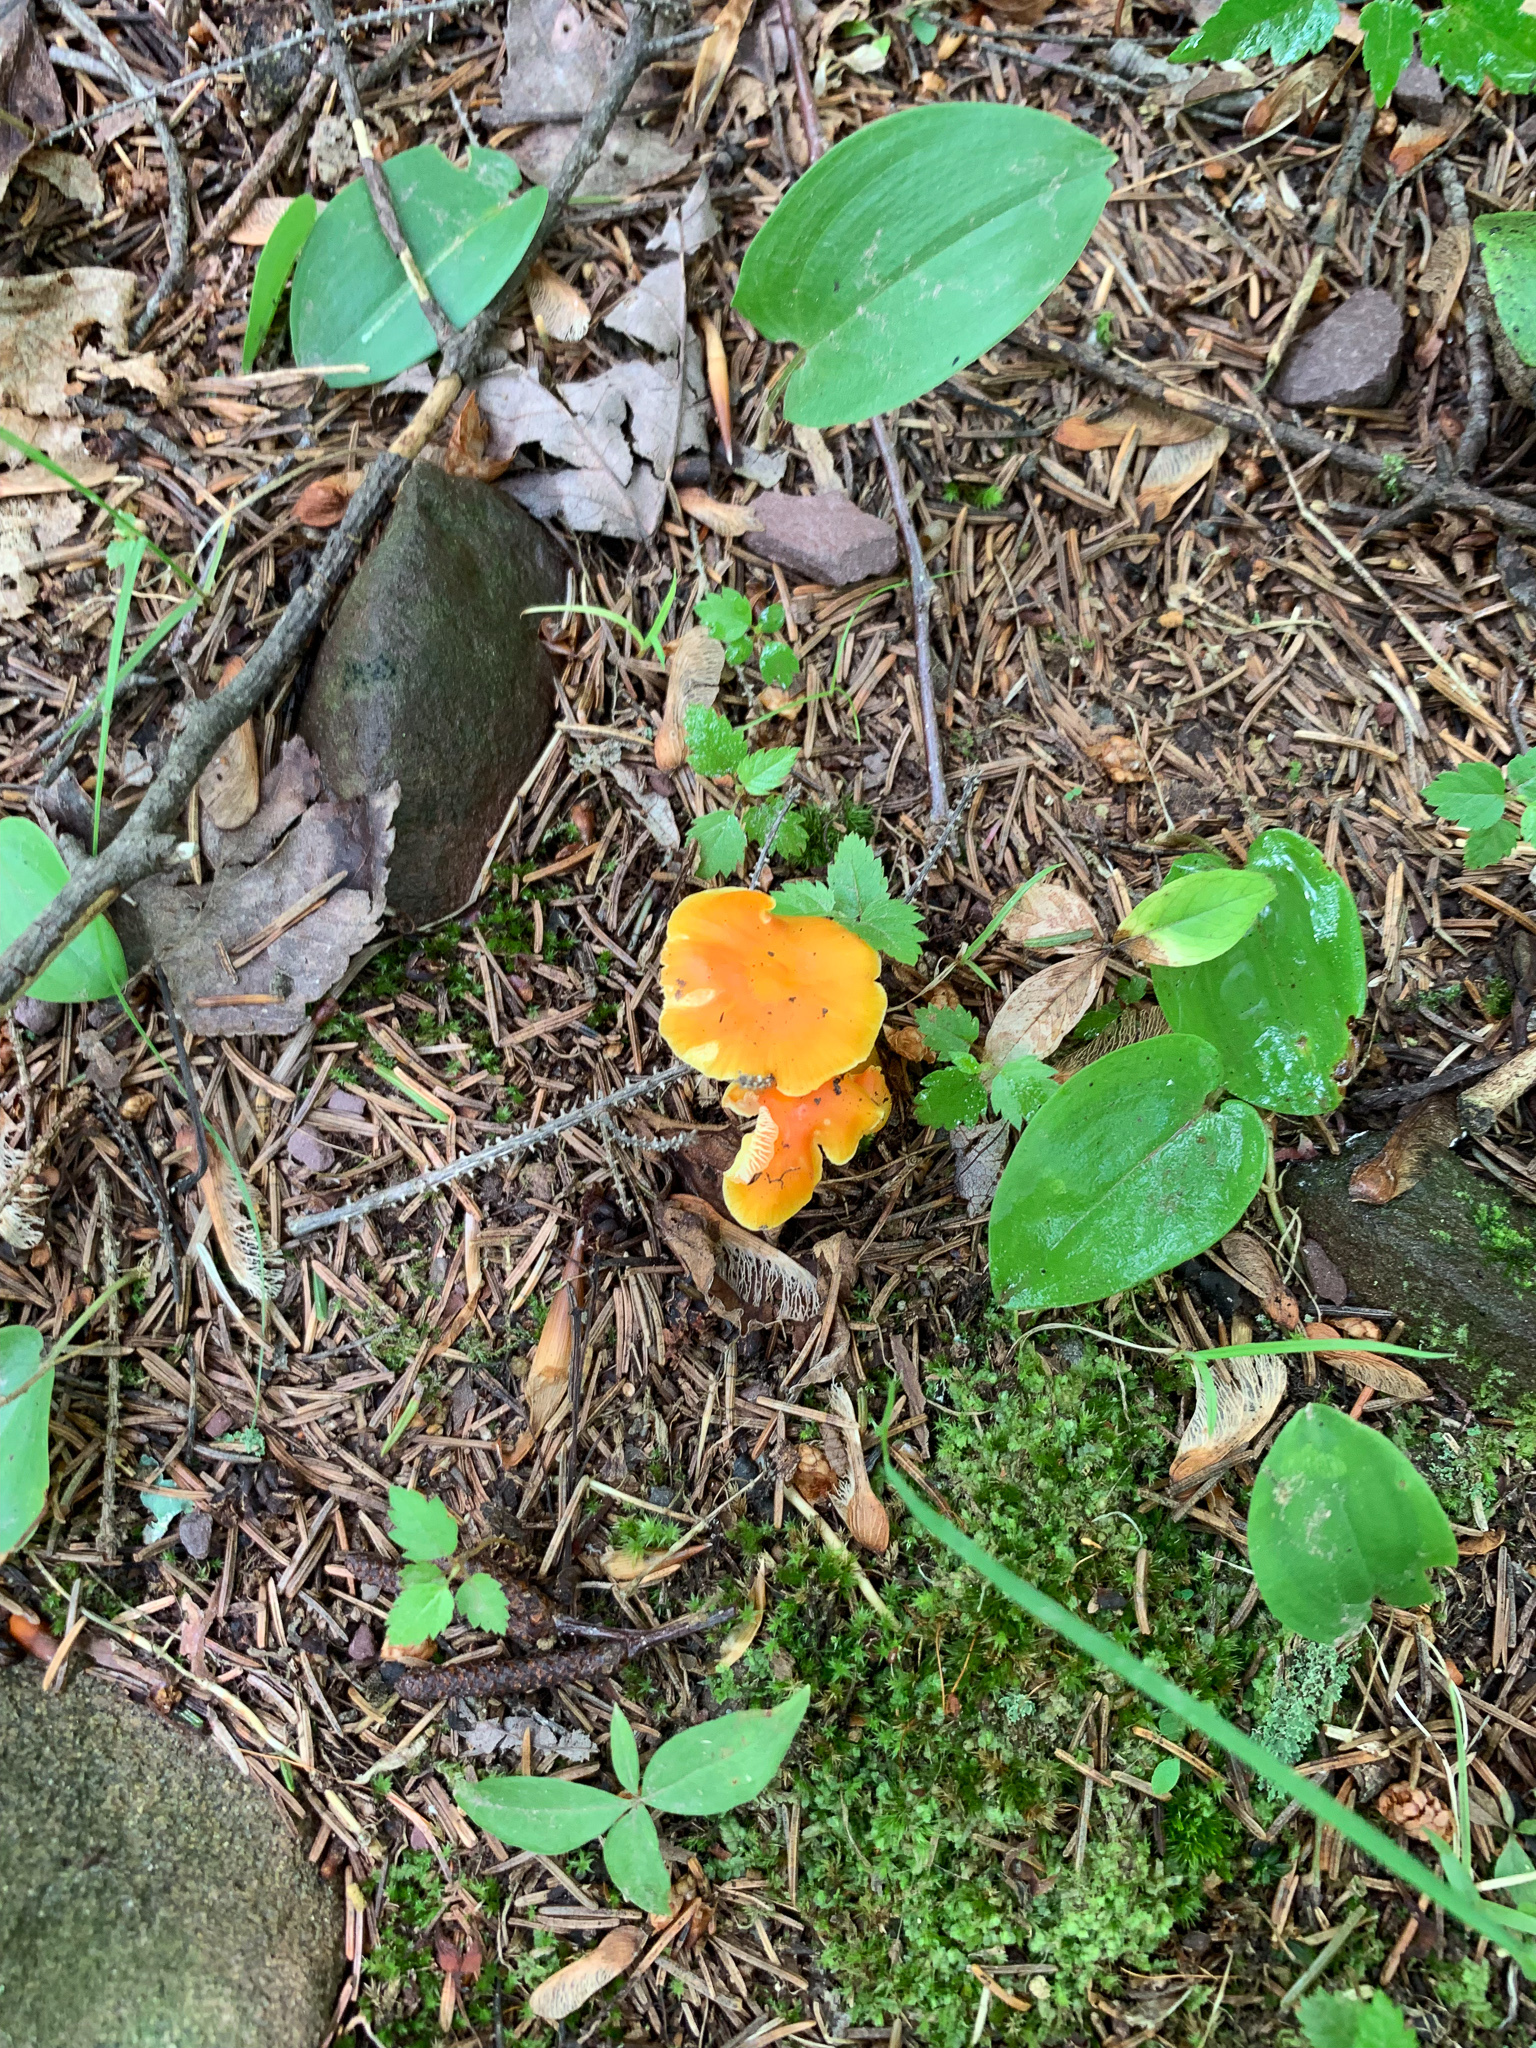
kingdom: Fungi
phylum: Basidiomycota
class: Agaricomycetes
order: Agaricales
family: Hygrophoraceae
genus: Hygrocybe
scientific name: Hygrocybe flavescens
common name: Golden waxy cap
